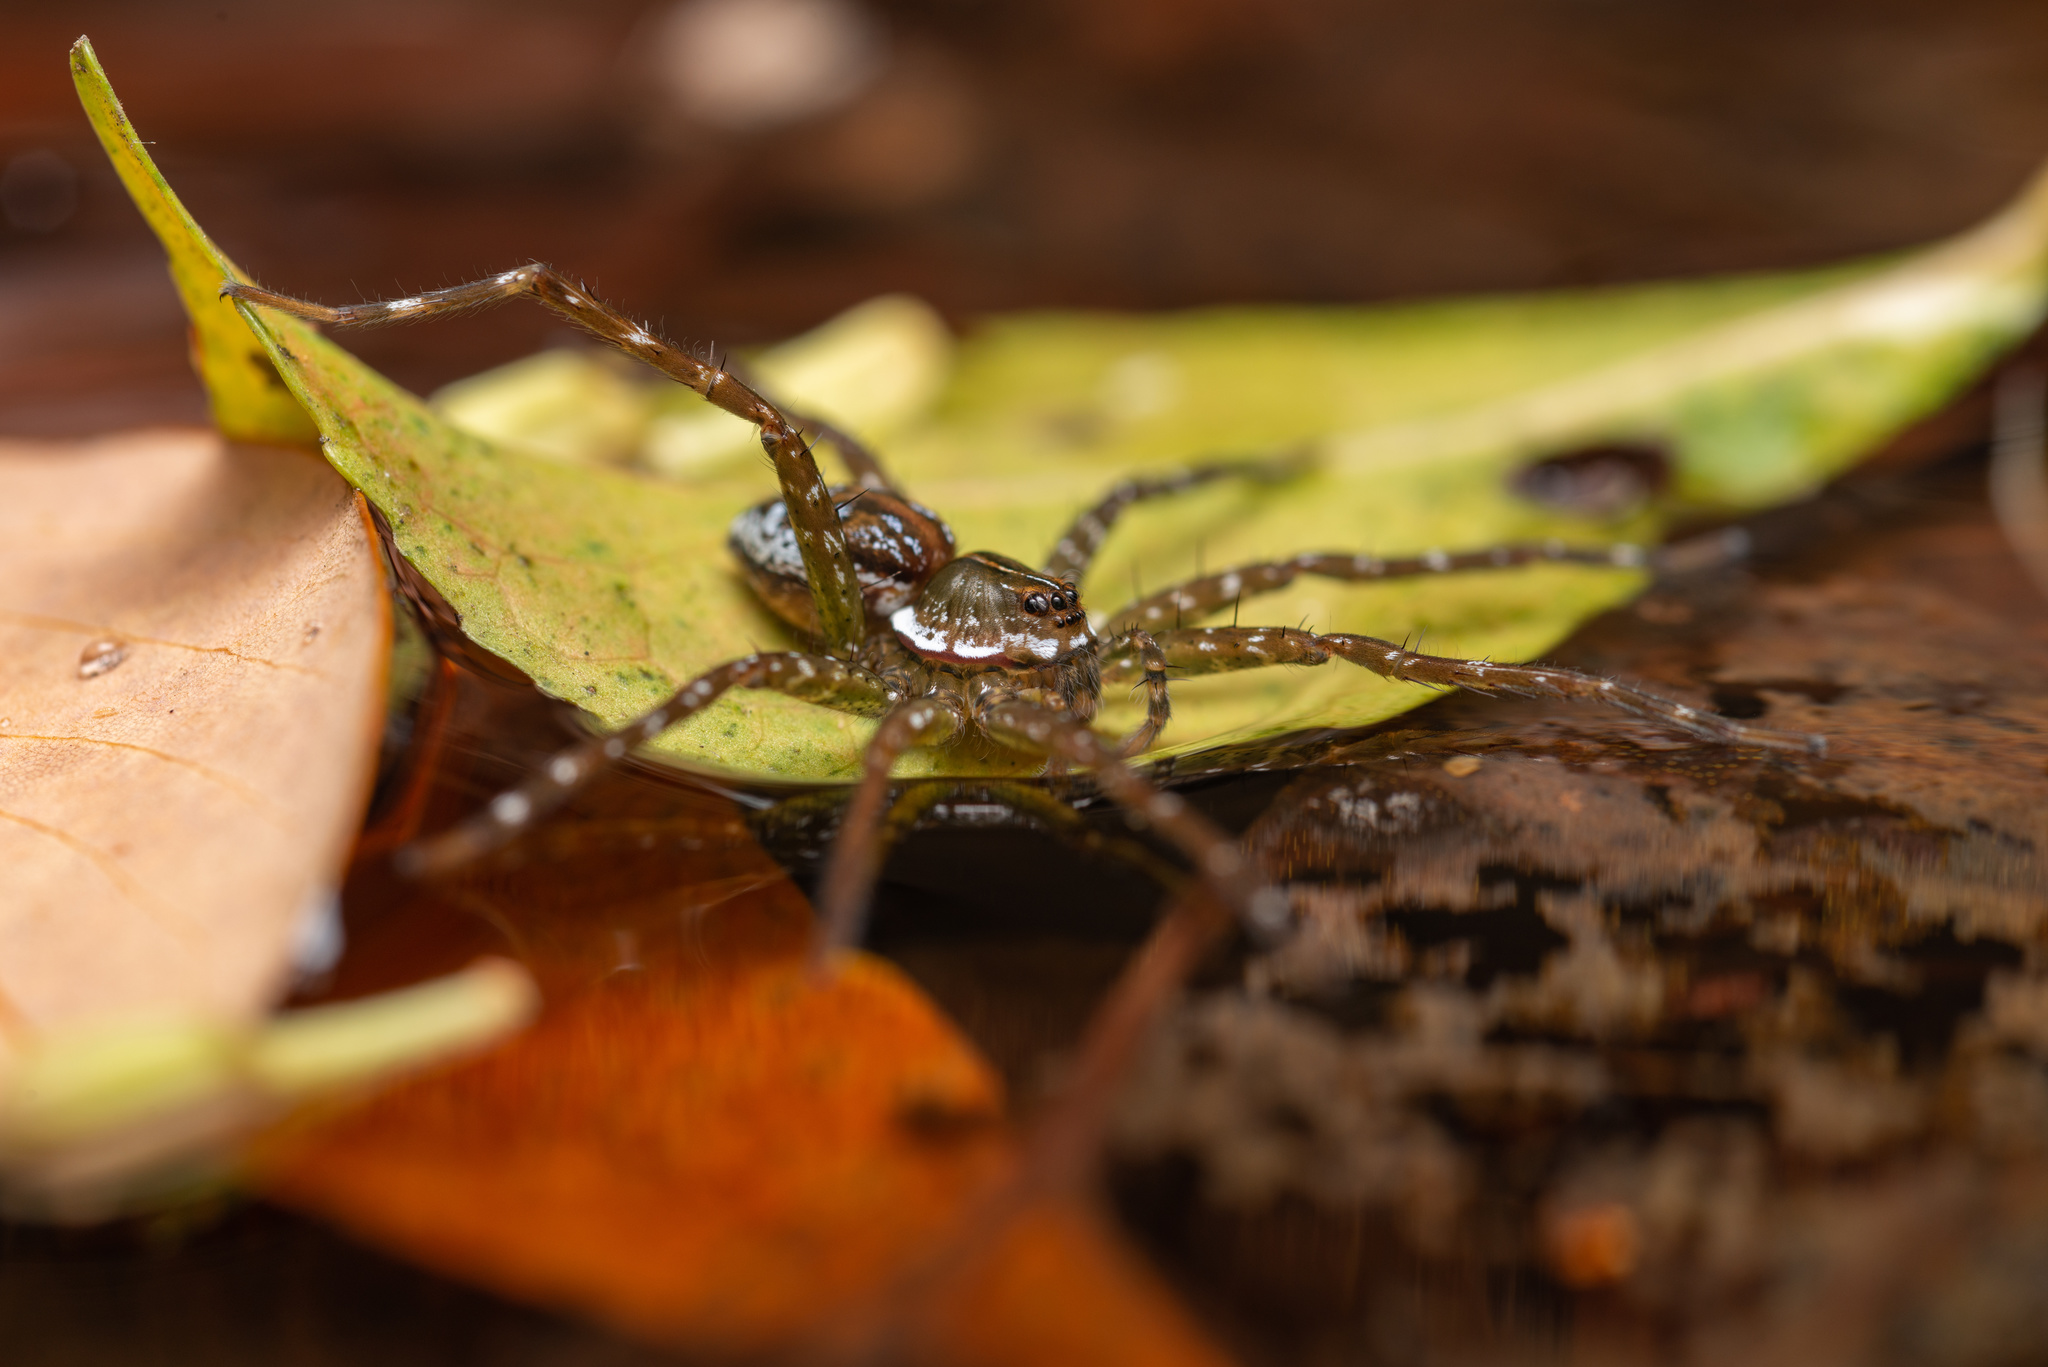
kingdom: Animalia
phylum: Arthropoda
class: Arachnida
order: Araneae
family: Pisauridae
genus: Dolomedes
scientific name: Dolomedes mizhoanus
